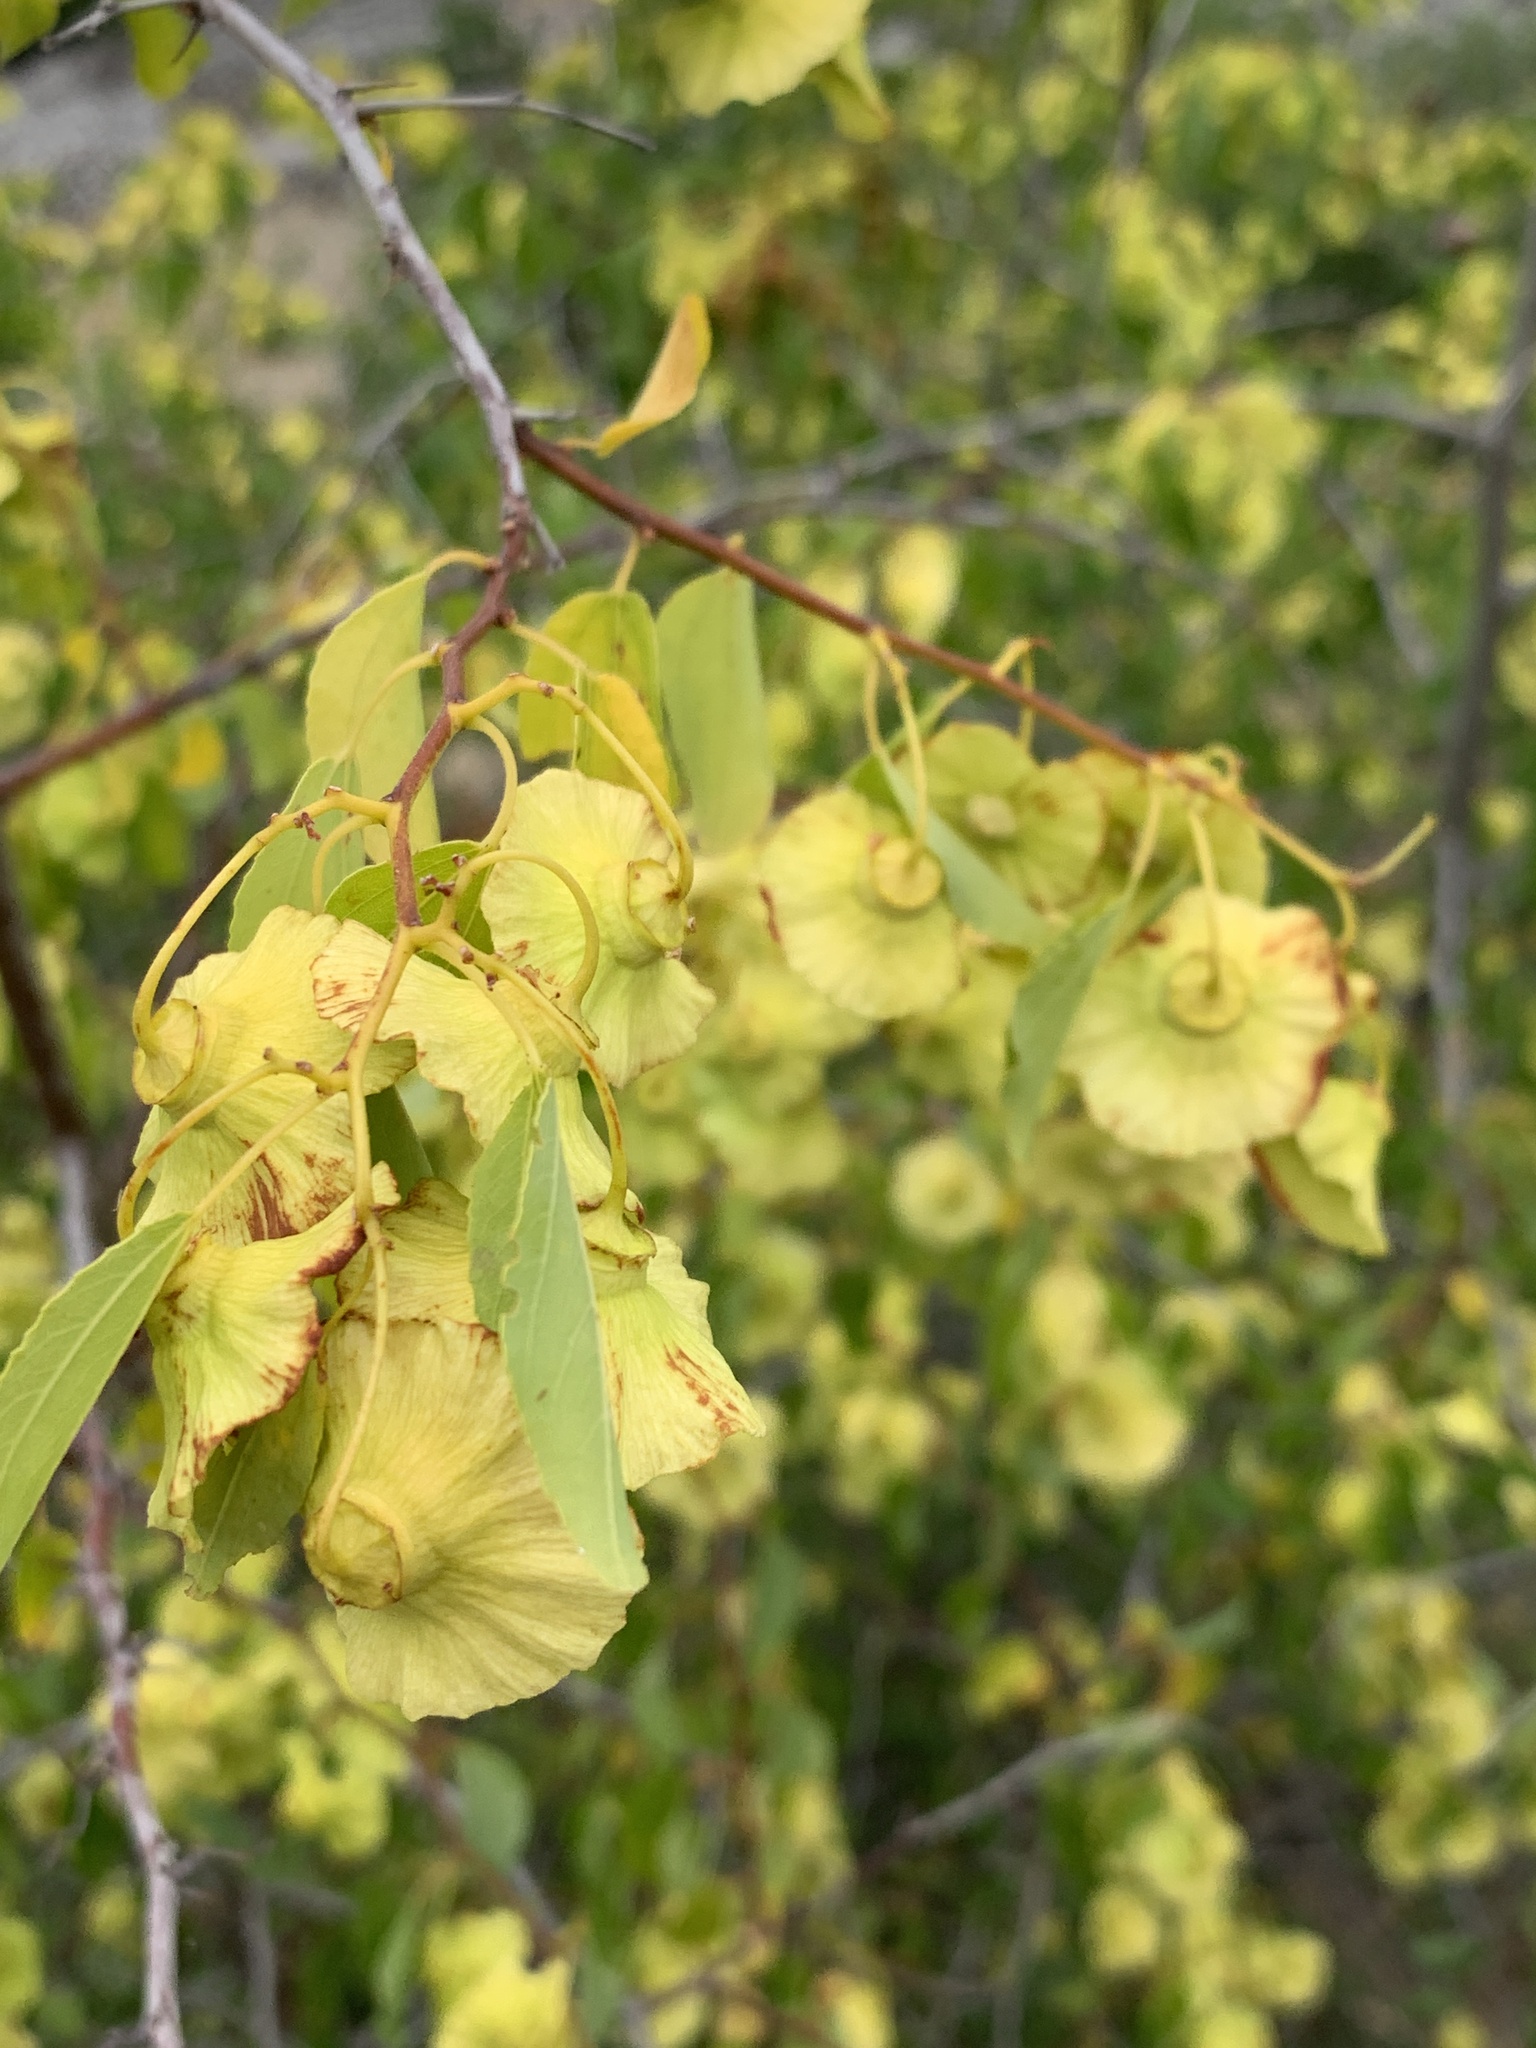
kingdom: Plantae
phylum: Tracheophyta
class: Magnoliopsida
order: Rosales
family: Rhamnaceae
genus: Paliurus
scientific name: Paliurus spina-christi
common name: Jeruselem thorn
